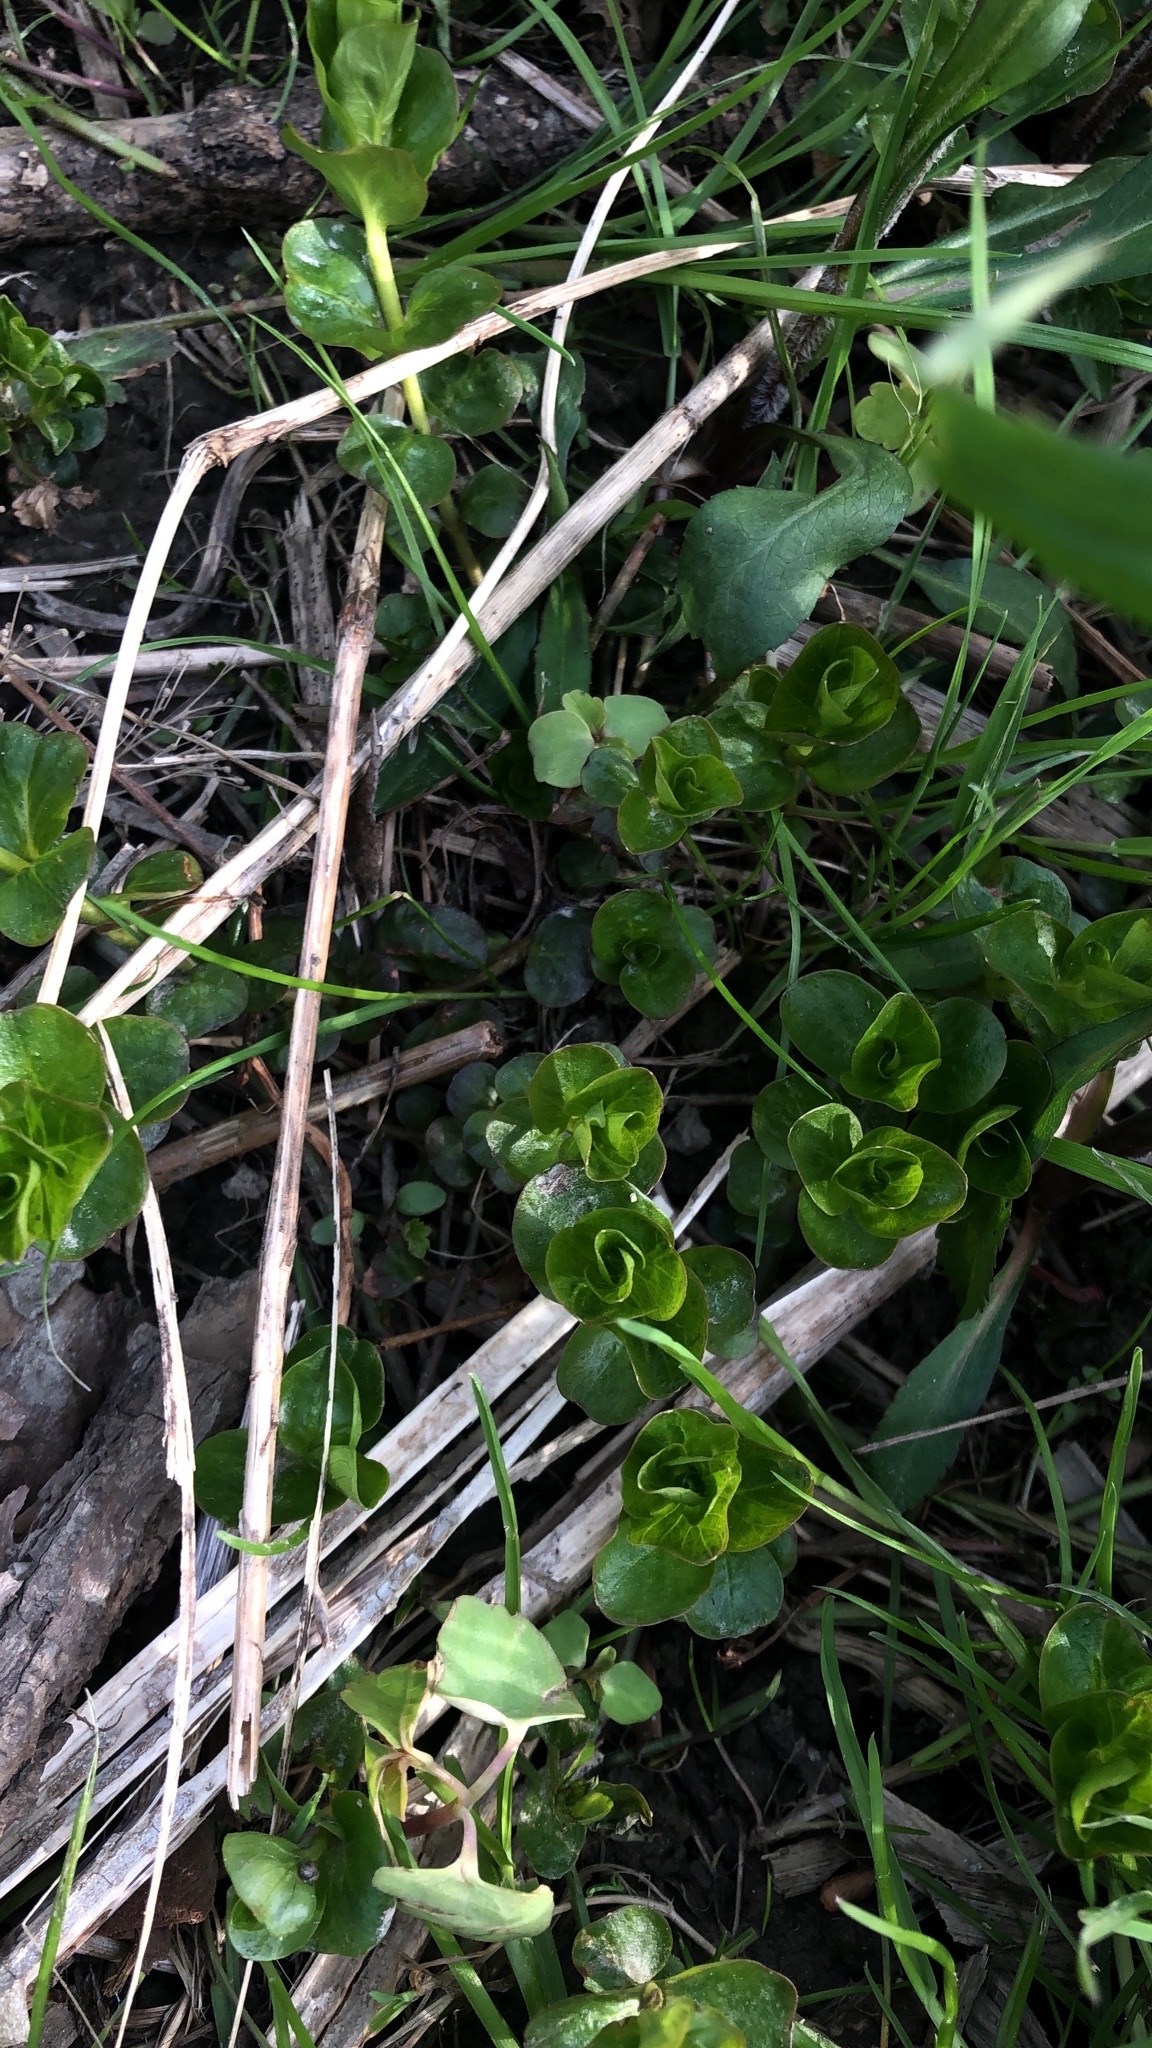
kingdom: Plantae
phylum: Tracheophyta
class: Magnoliopsida
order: Ericales
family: Primulaceae
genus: Lysimachia
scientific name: Lysimachia nummularia
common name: Moneywort
